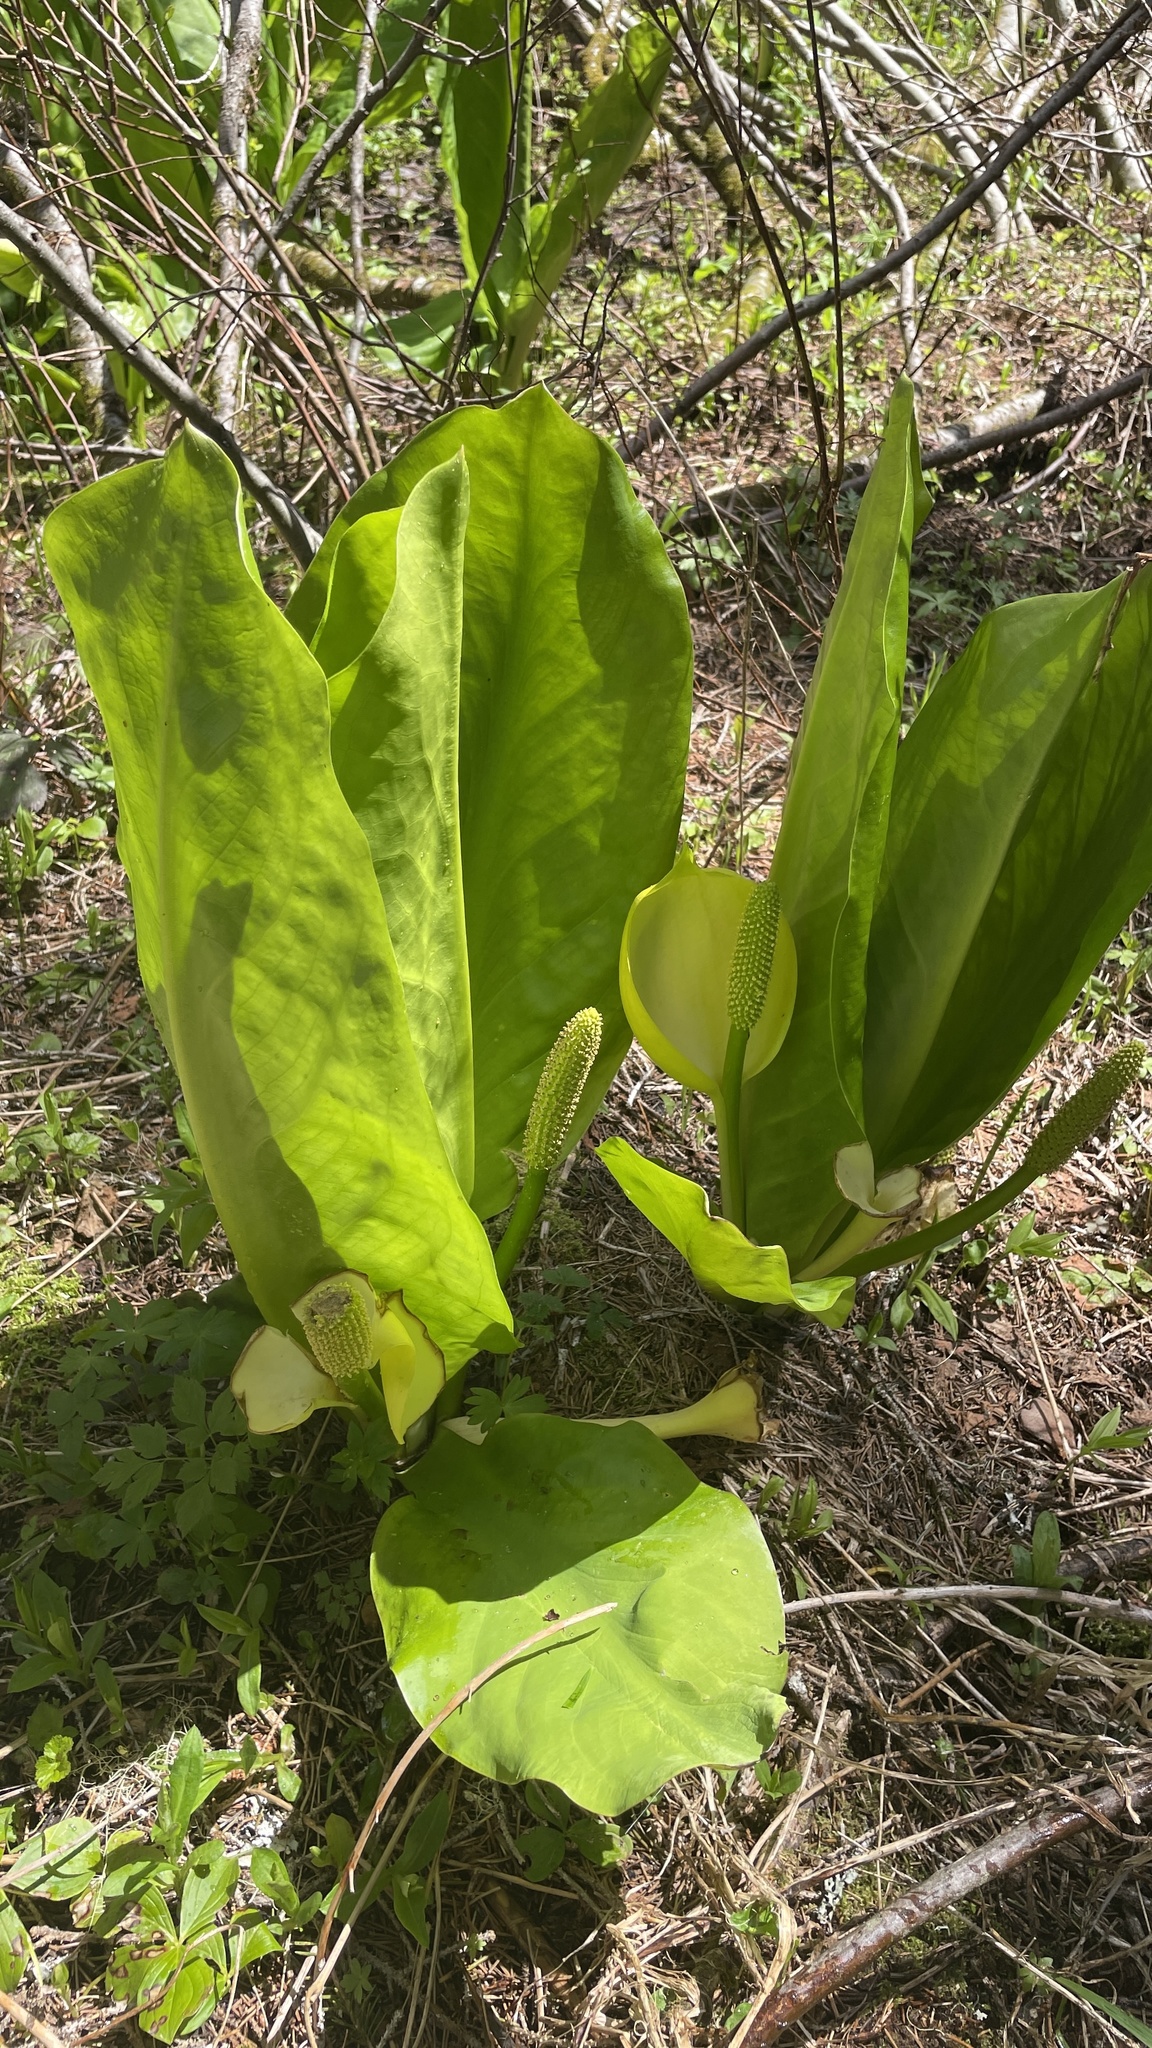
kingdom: Plantae
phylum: Tracheophyta
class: Liliopsida
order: Alismatales
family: Araceae
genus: Lysichiton
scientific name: Lysichiton americanus
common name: American skunk cabbage
